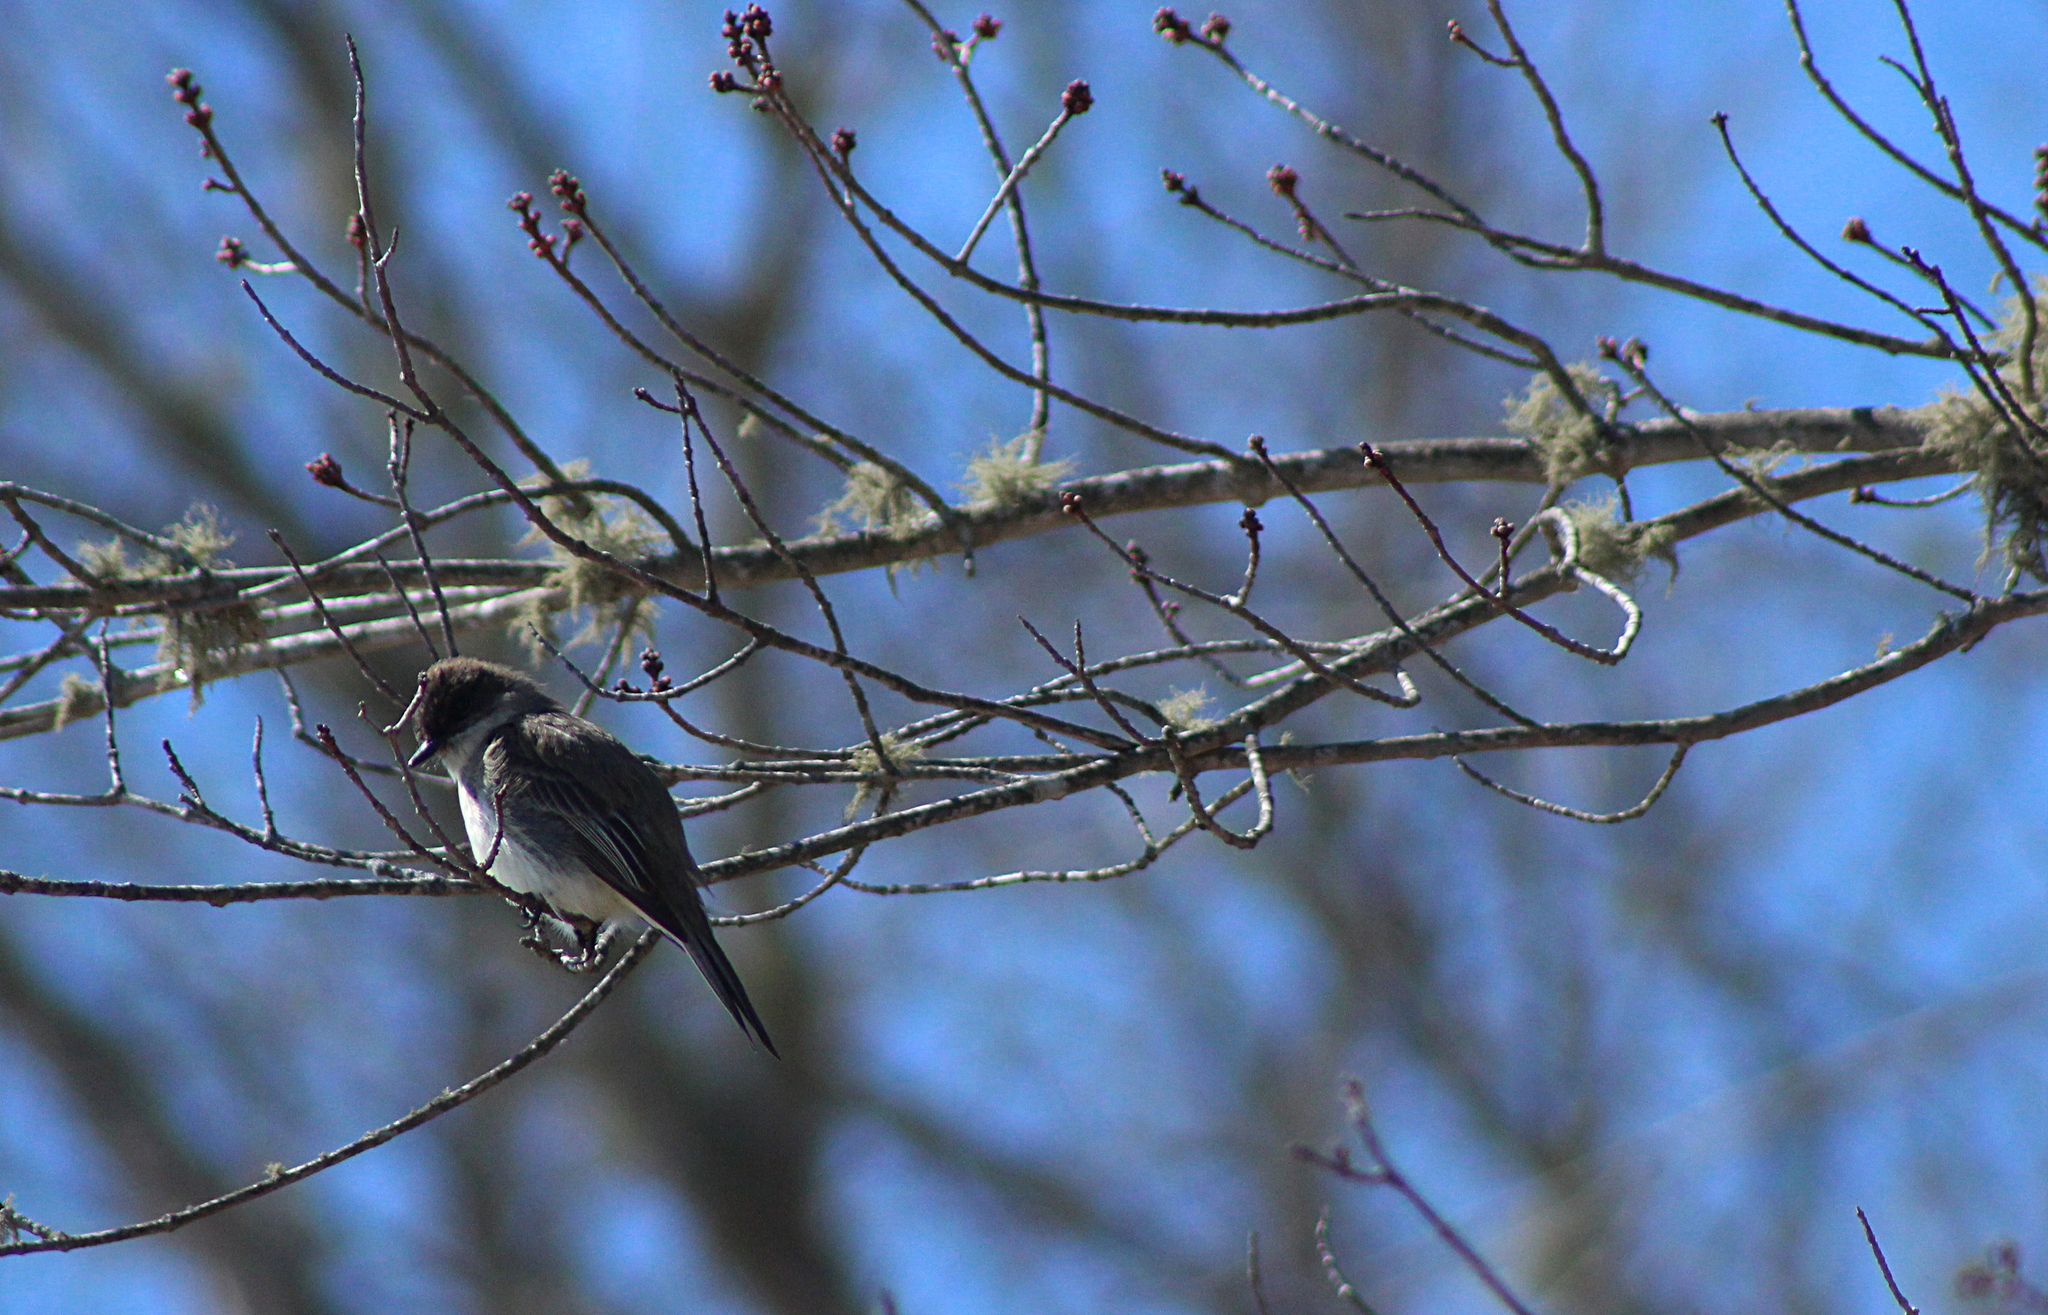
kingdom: Animalia
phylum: Chordata
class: Aves
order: Passeriformes
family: Tyrannidae
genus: Sayornis
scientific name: Sayornis phoebe
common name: Eastern phoebe
